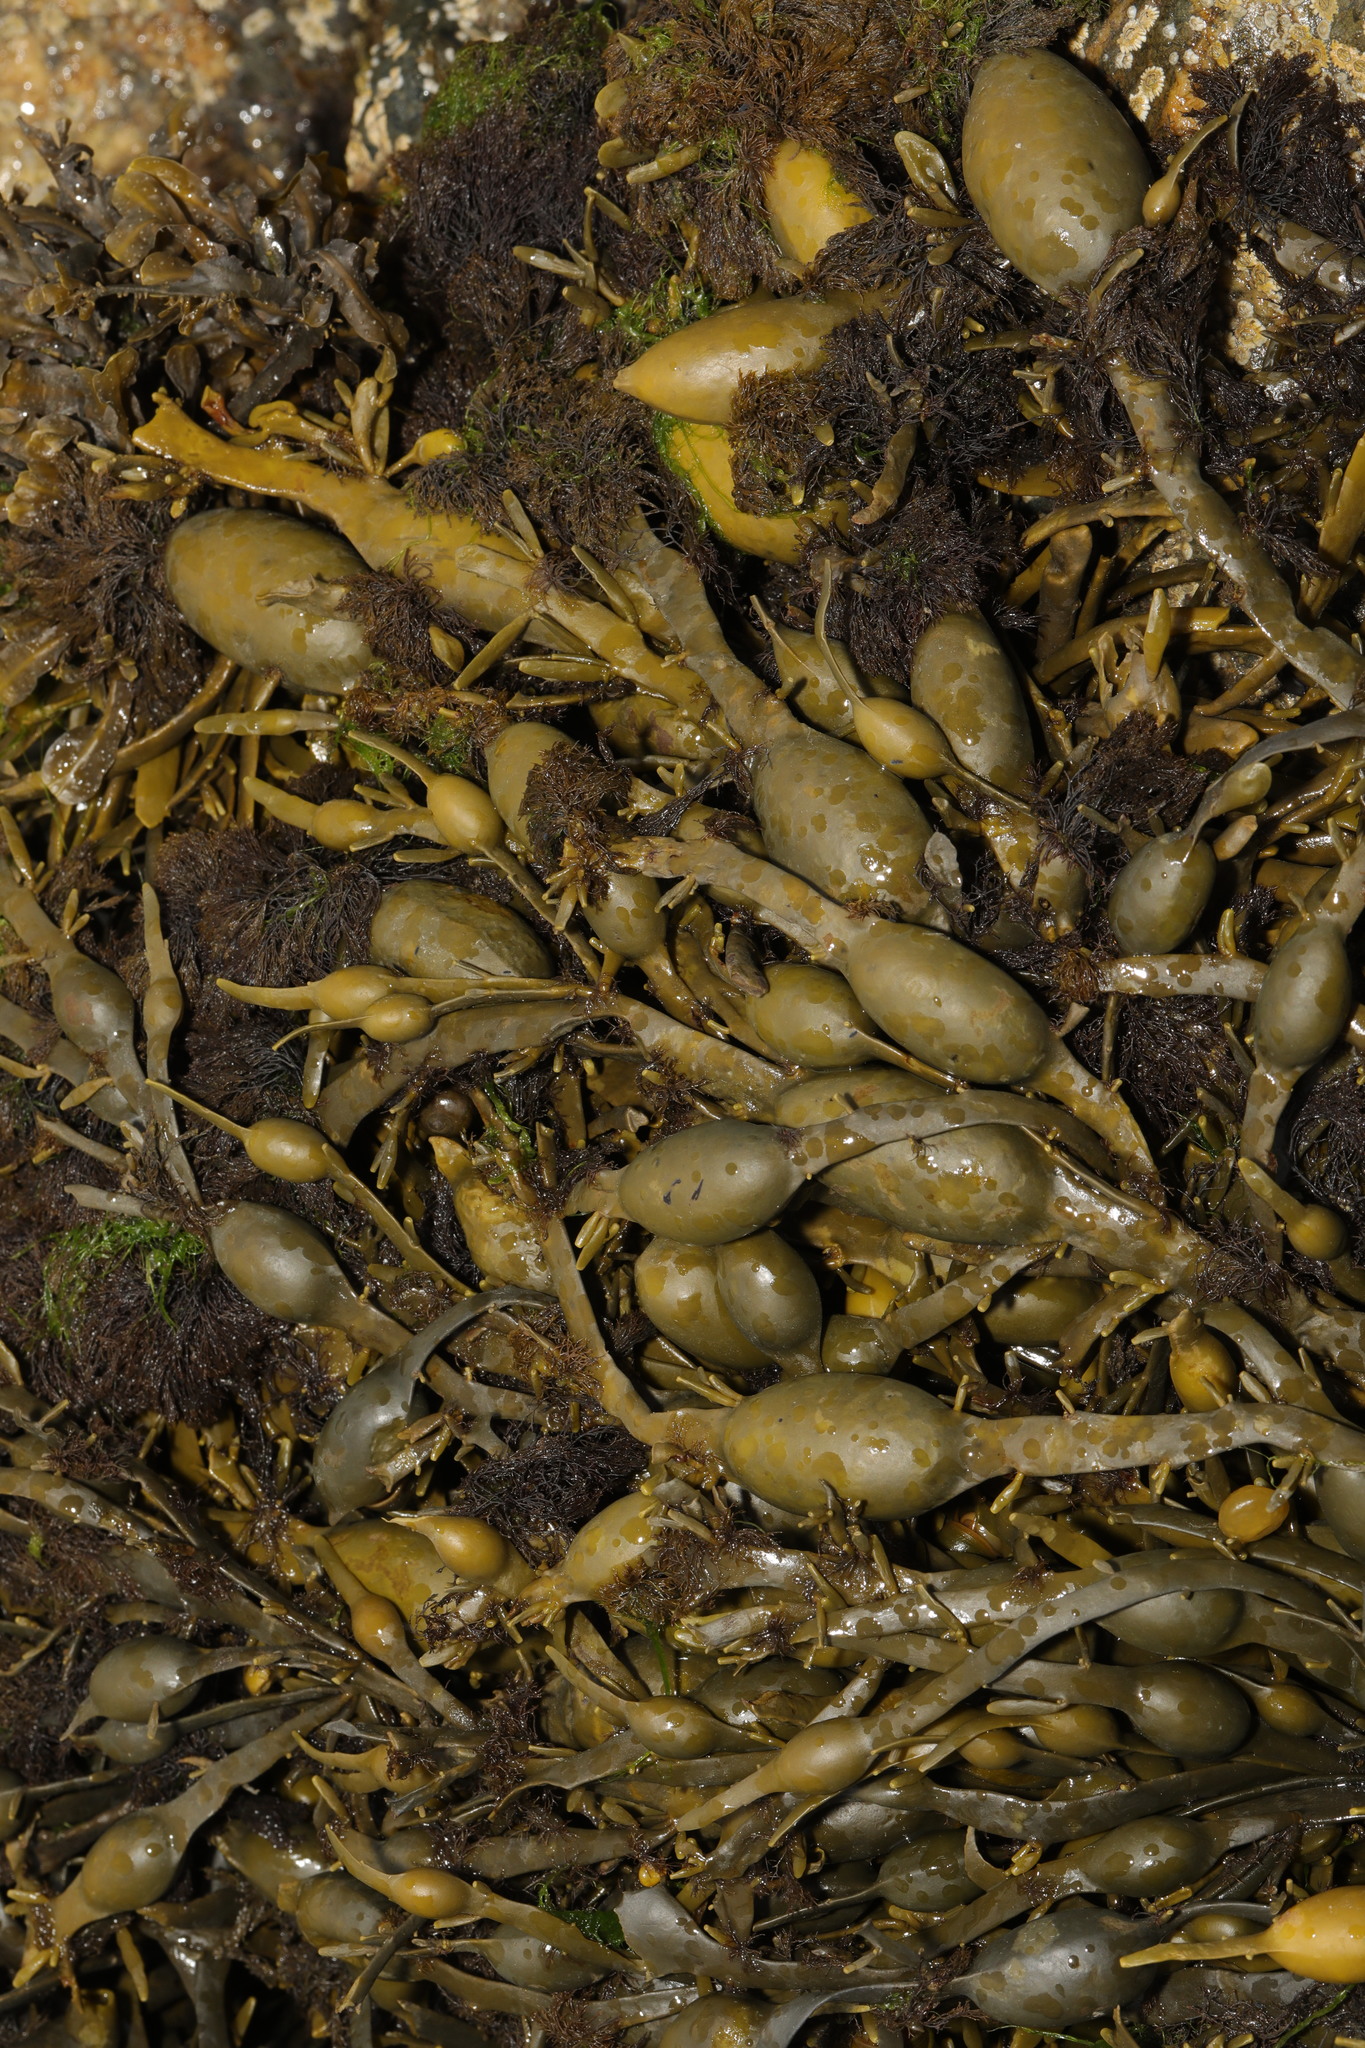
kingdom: Chromista
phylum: Ochrophyta
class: Phaeophyceae
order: Fucales
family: Fucaceae
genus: Ascophyllum
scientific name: Ascophyllum nodosum
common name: Knotted wrack
